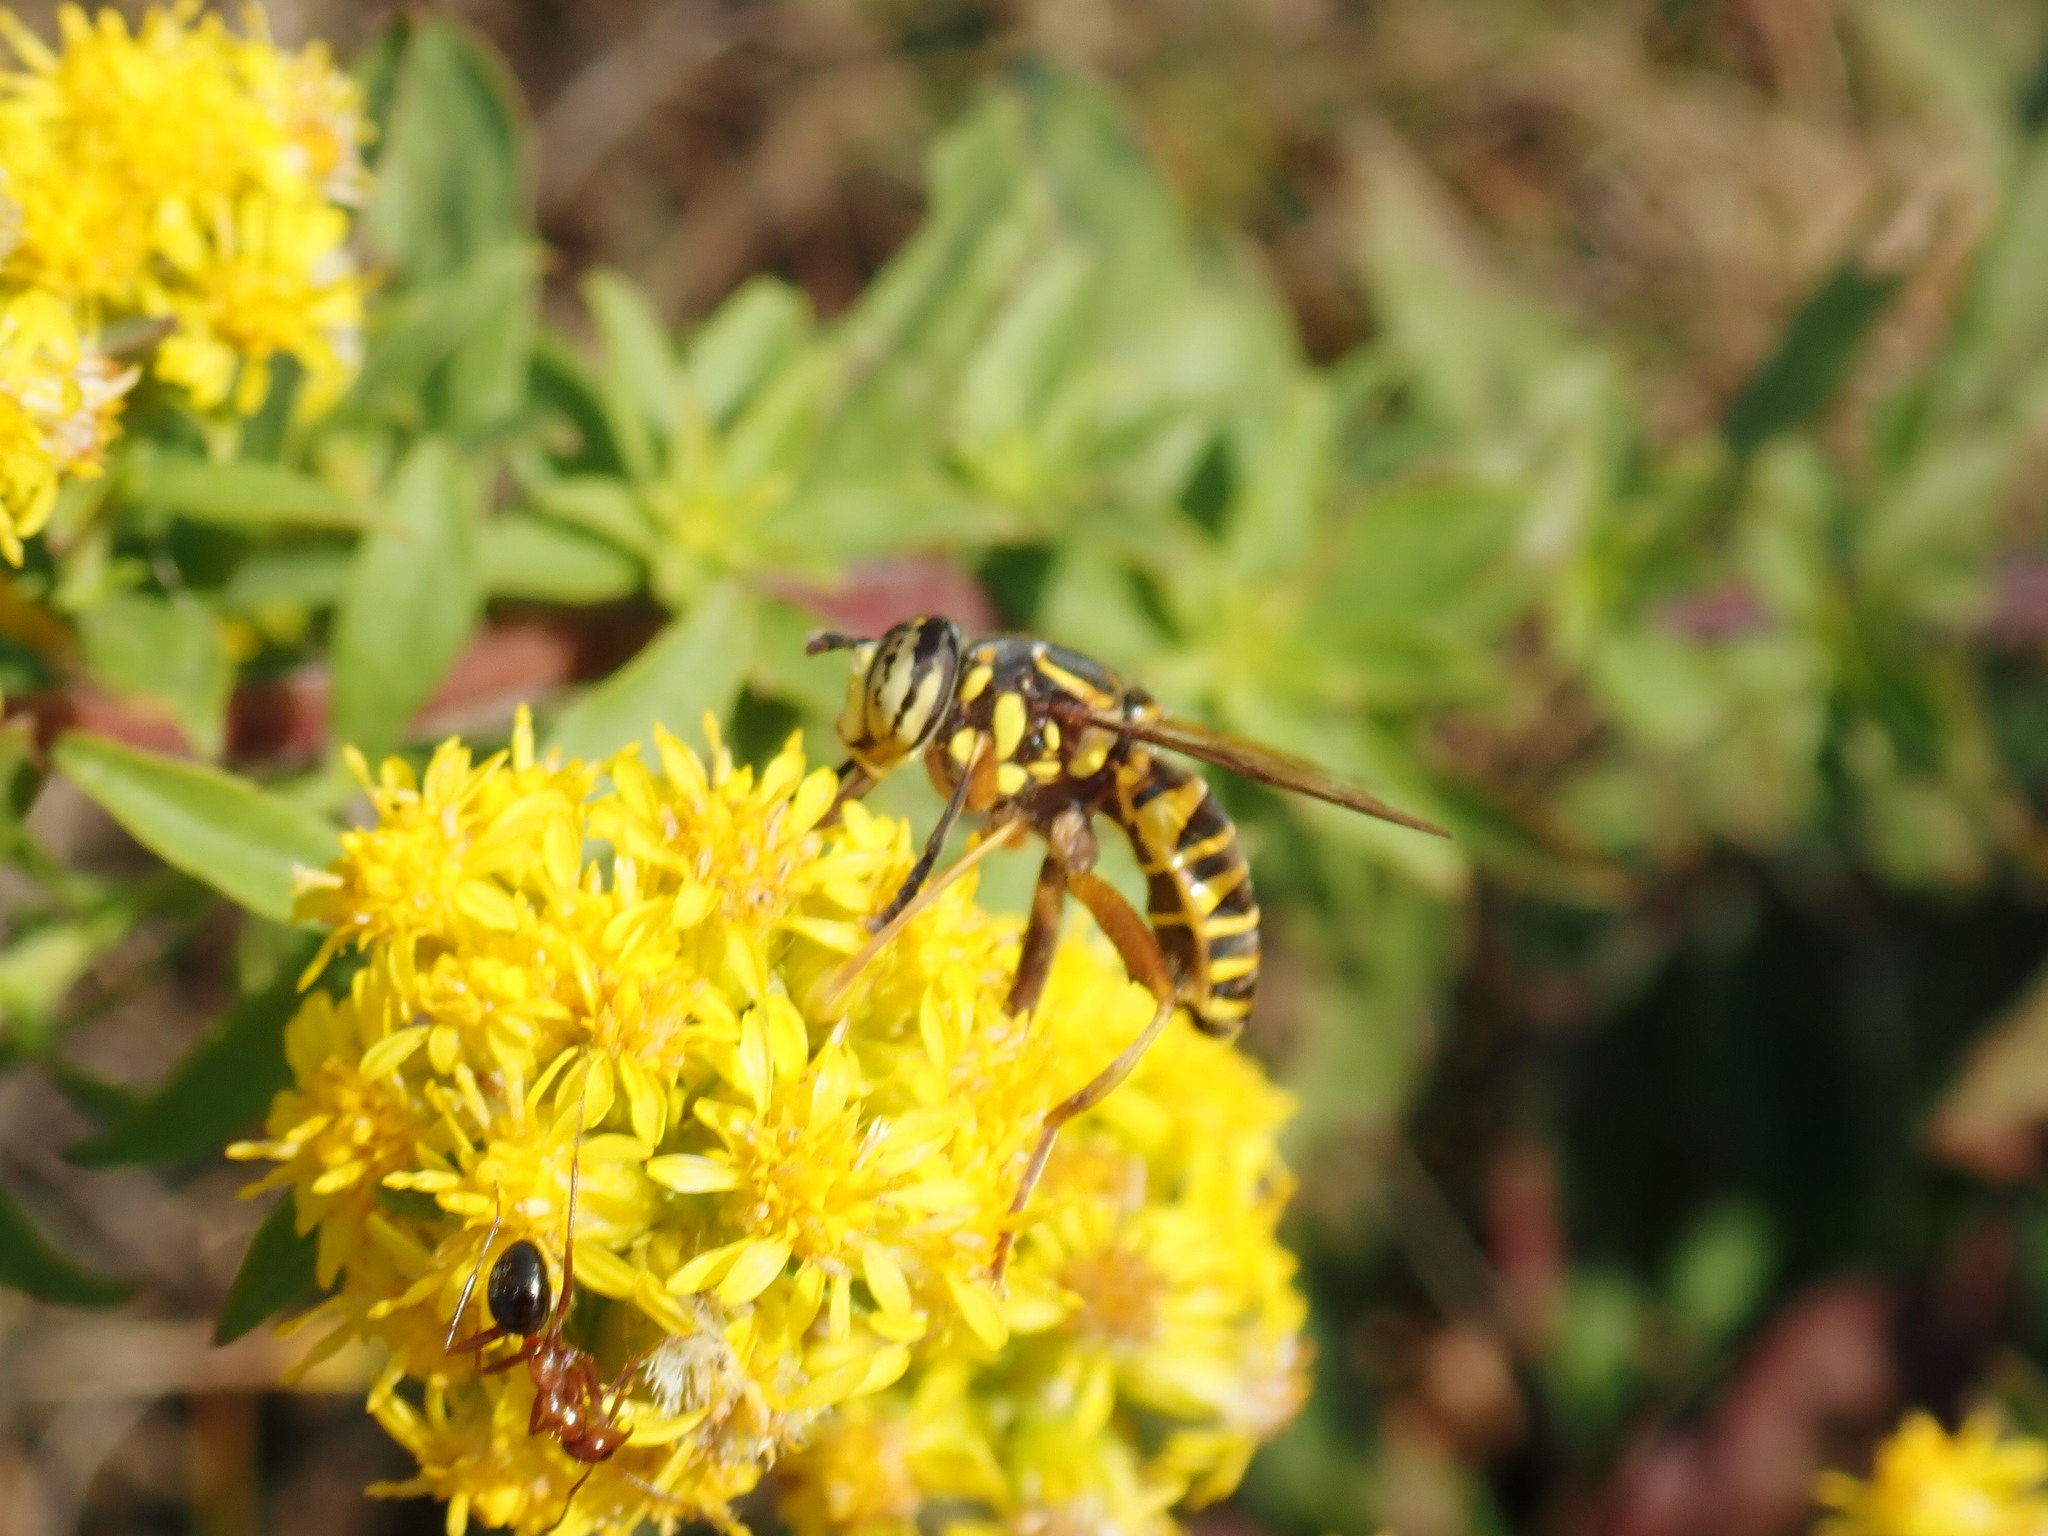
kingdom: Animalia
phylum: Arthropoda
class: Insecta
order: Diptera
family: Syrphidae
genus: Spilomyia
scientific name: Spilomyia longicornis
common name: Eastern hornet fly
